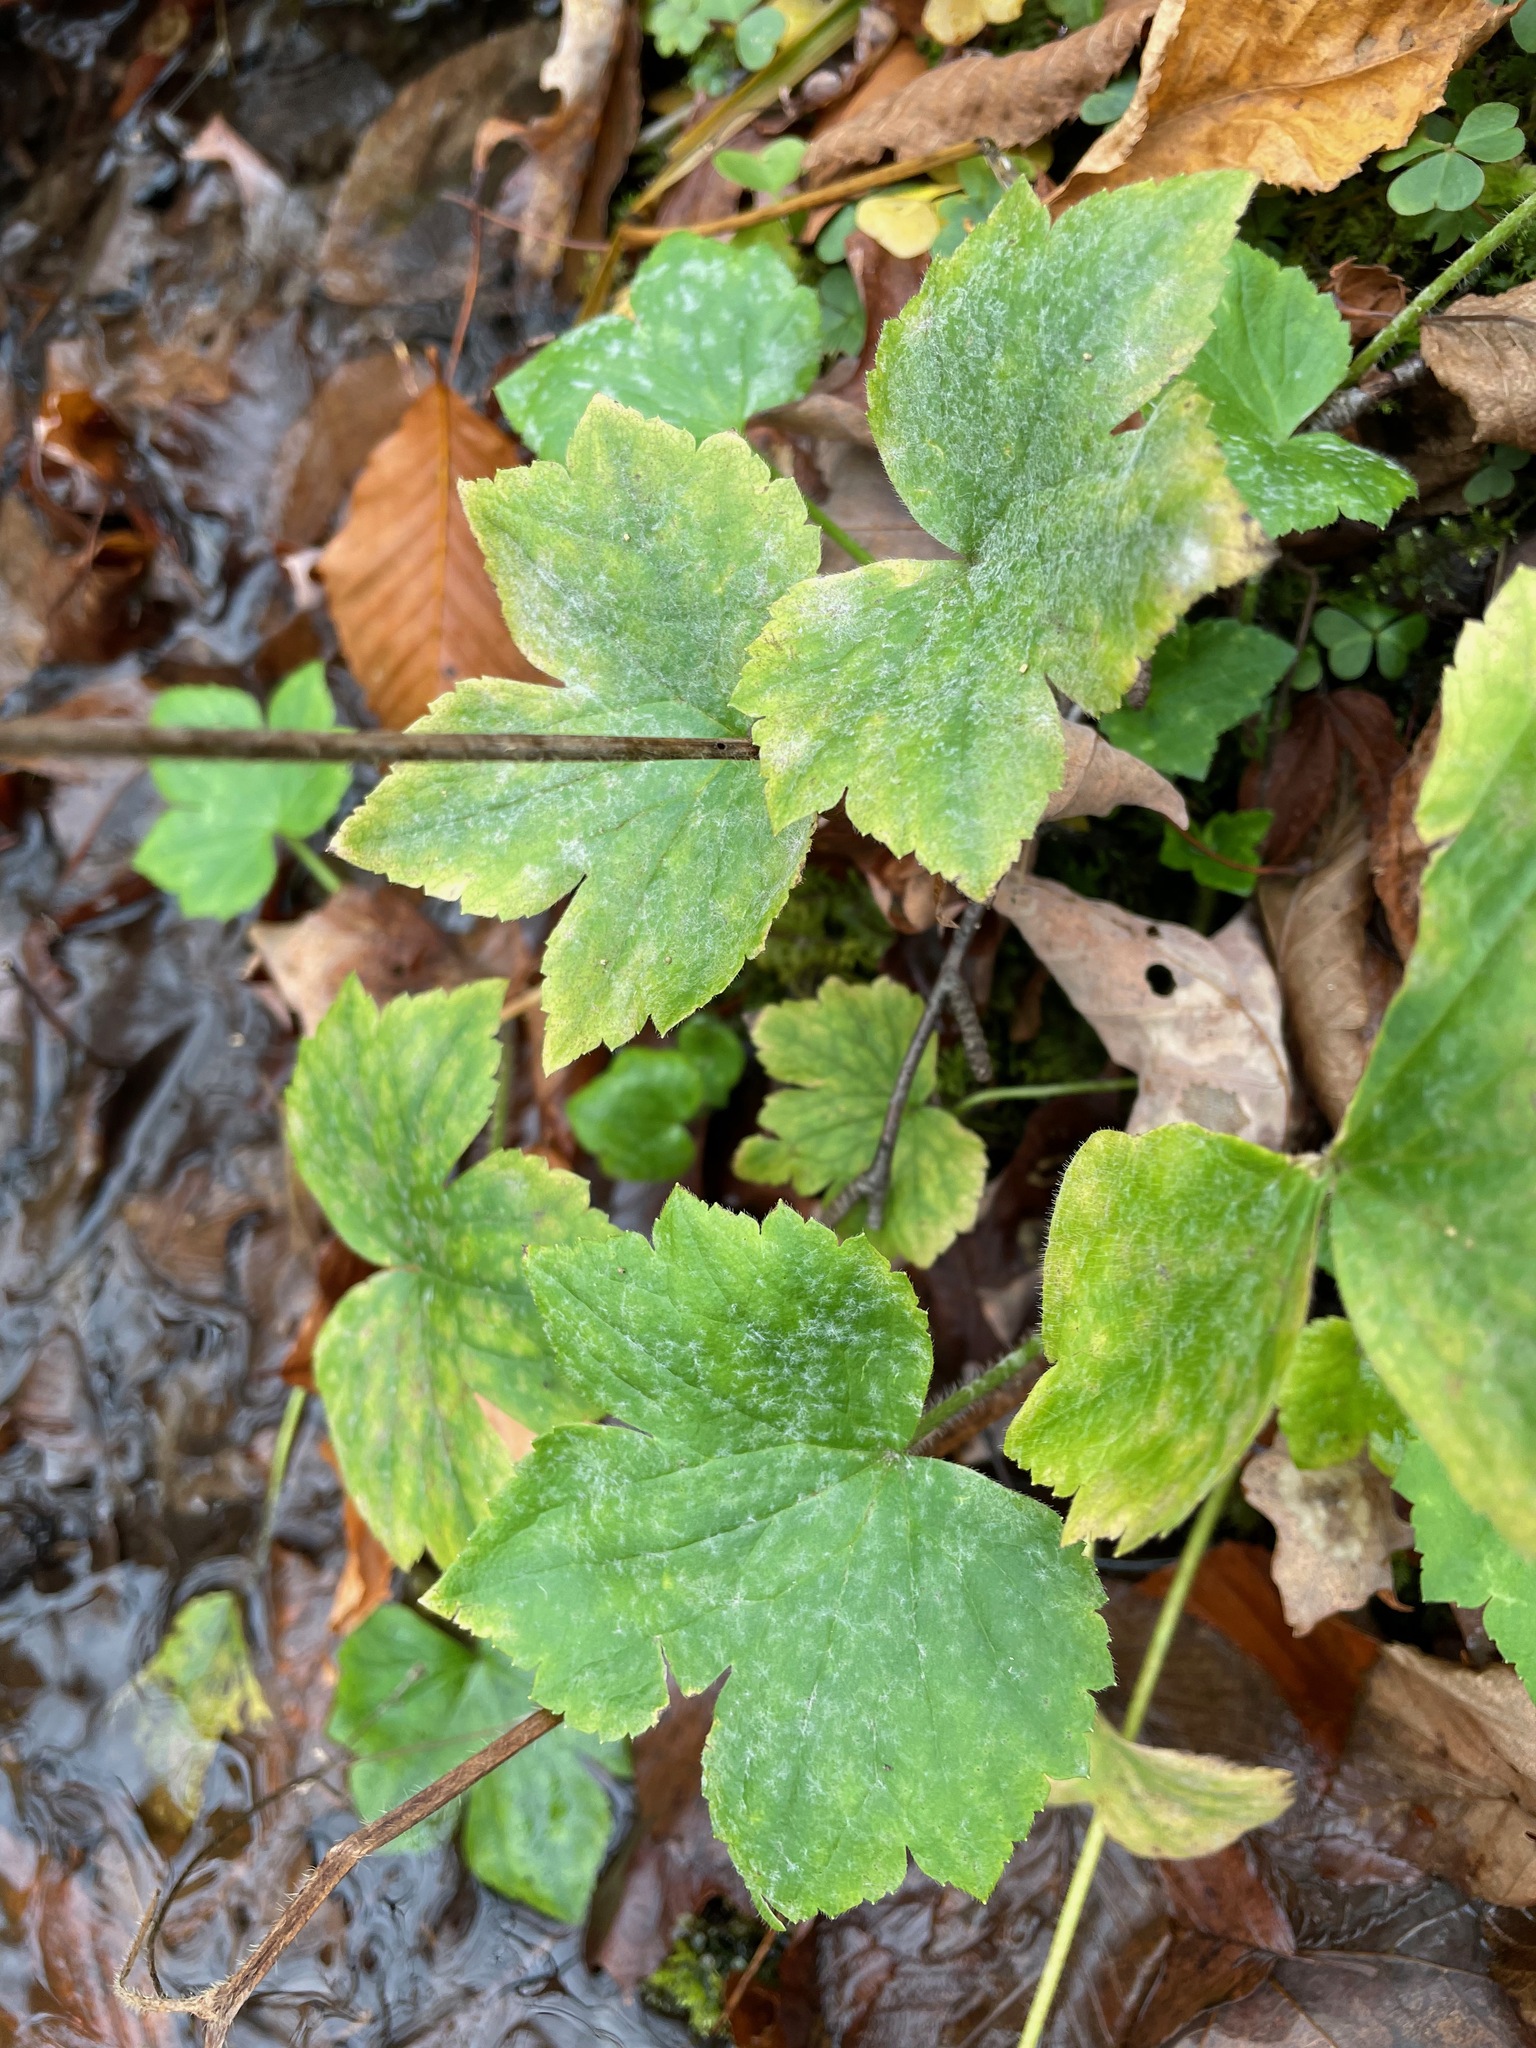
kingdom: Plantae
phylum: Tracheophyta
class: Magnoliopsida
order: Ranunculales
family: Ranunculaceae
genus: Ranunculus
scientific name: Ranunculus recurvatus
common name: Blisterwort
